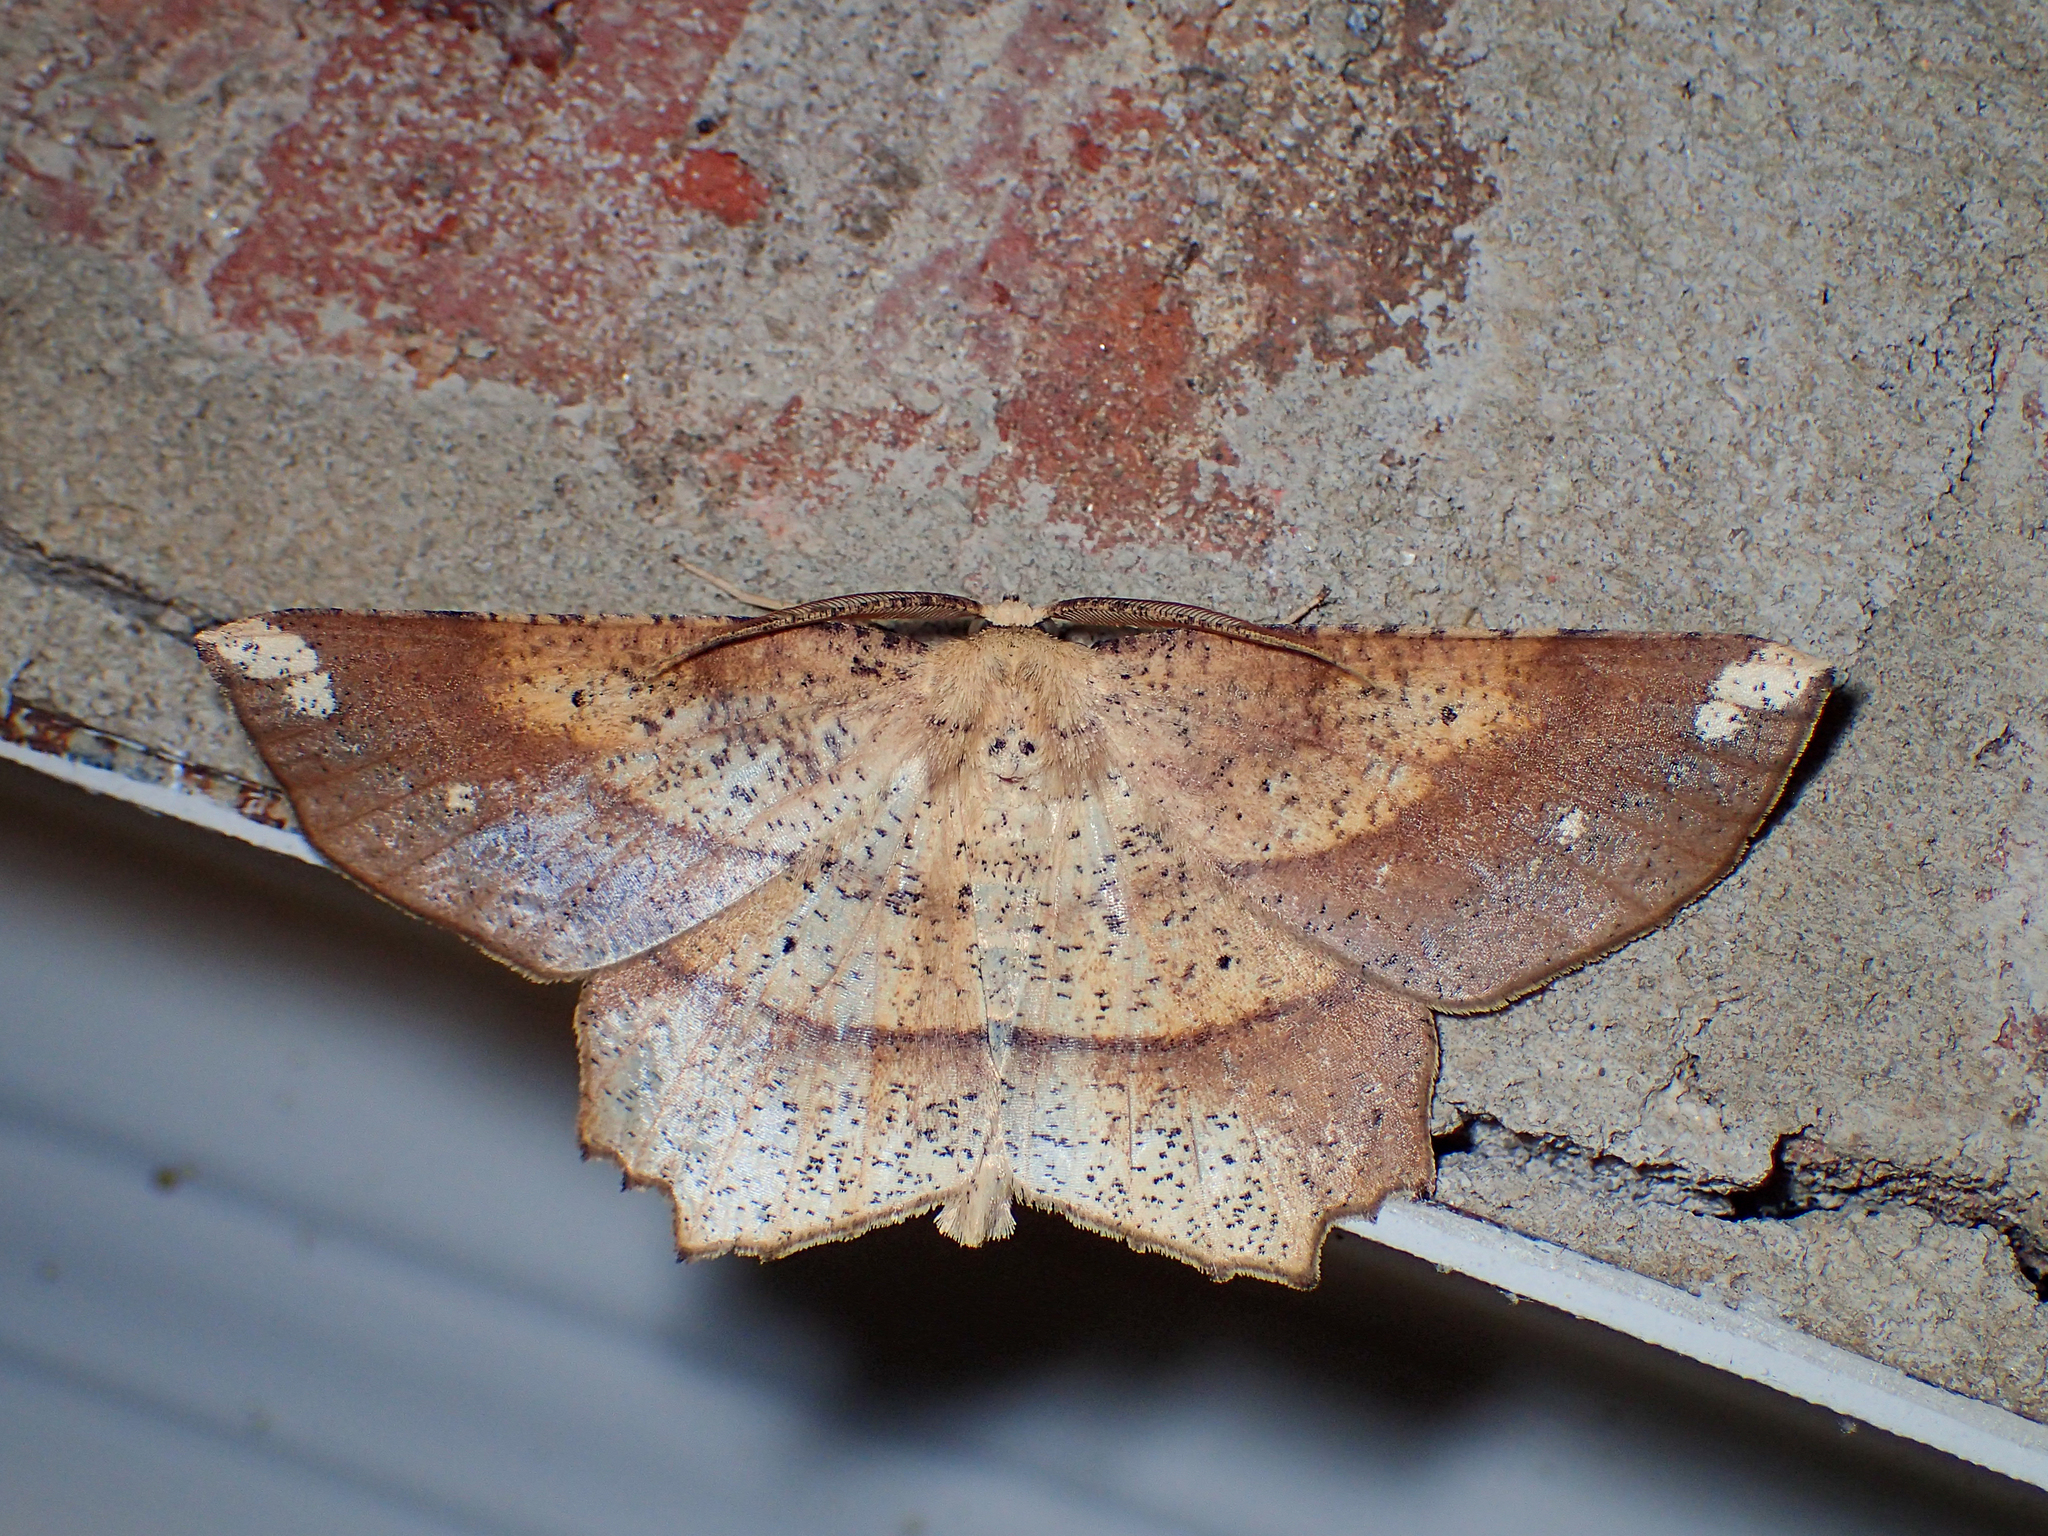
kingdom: Animalia
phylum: Arthropoda
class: Insecta
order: Lepidoptera
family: Geometridae
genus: Euchlaena
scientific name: Euchlaena amoenaria
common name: Deep yellow euchlaena
